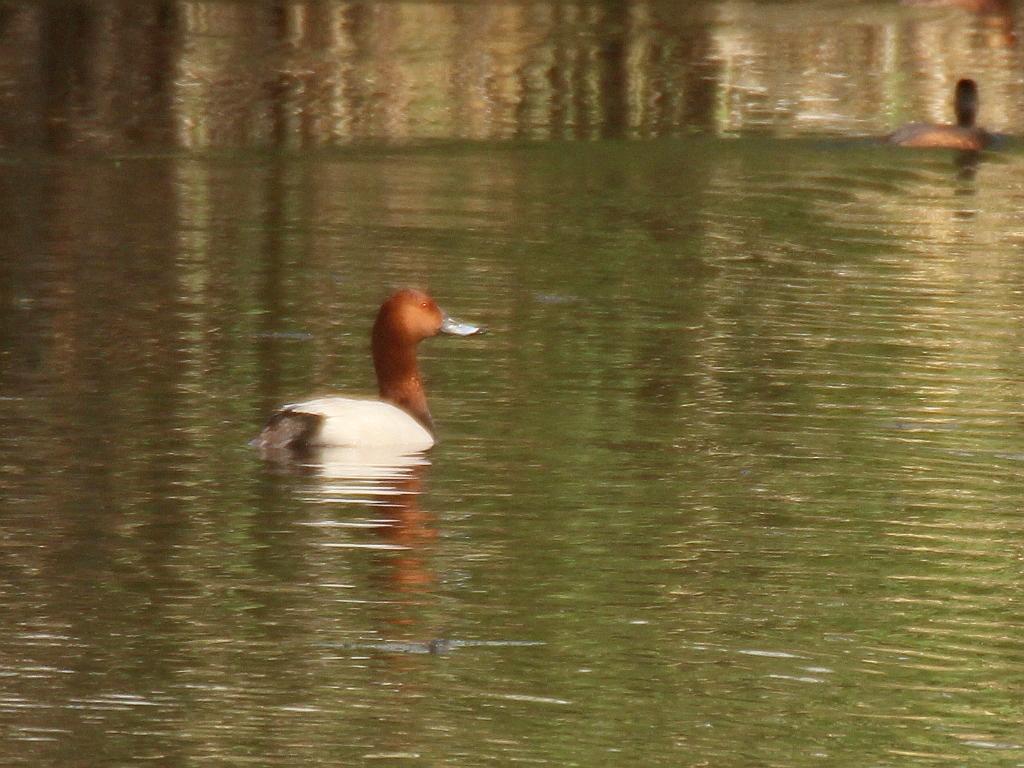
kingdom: Animalia
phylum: Chordata
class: Aves
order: Anseriformes
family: Anatidae
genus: Aythya
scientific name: Aythya ferina
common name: Common pochard
